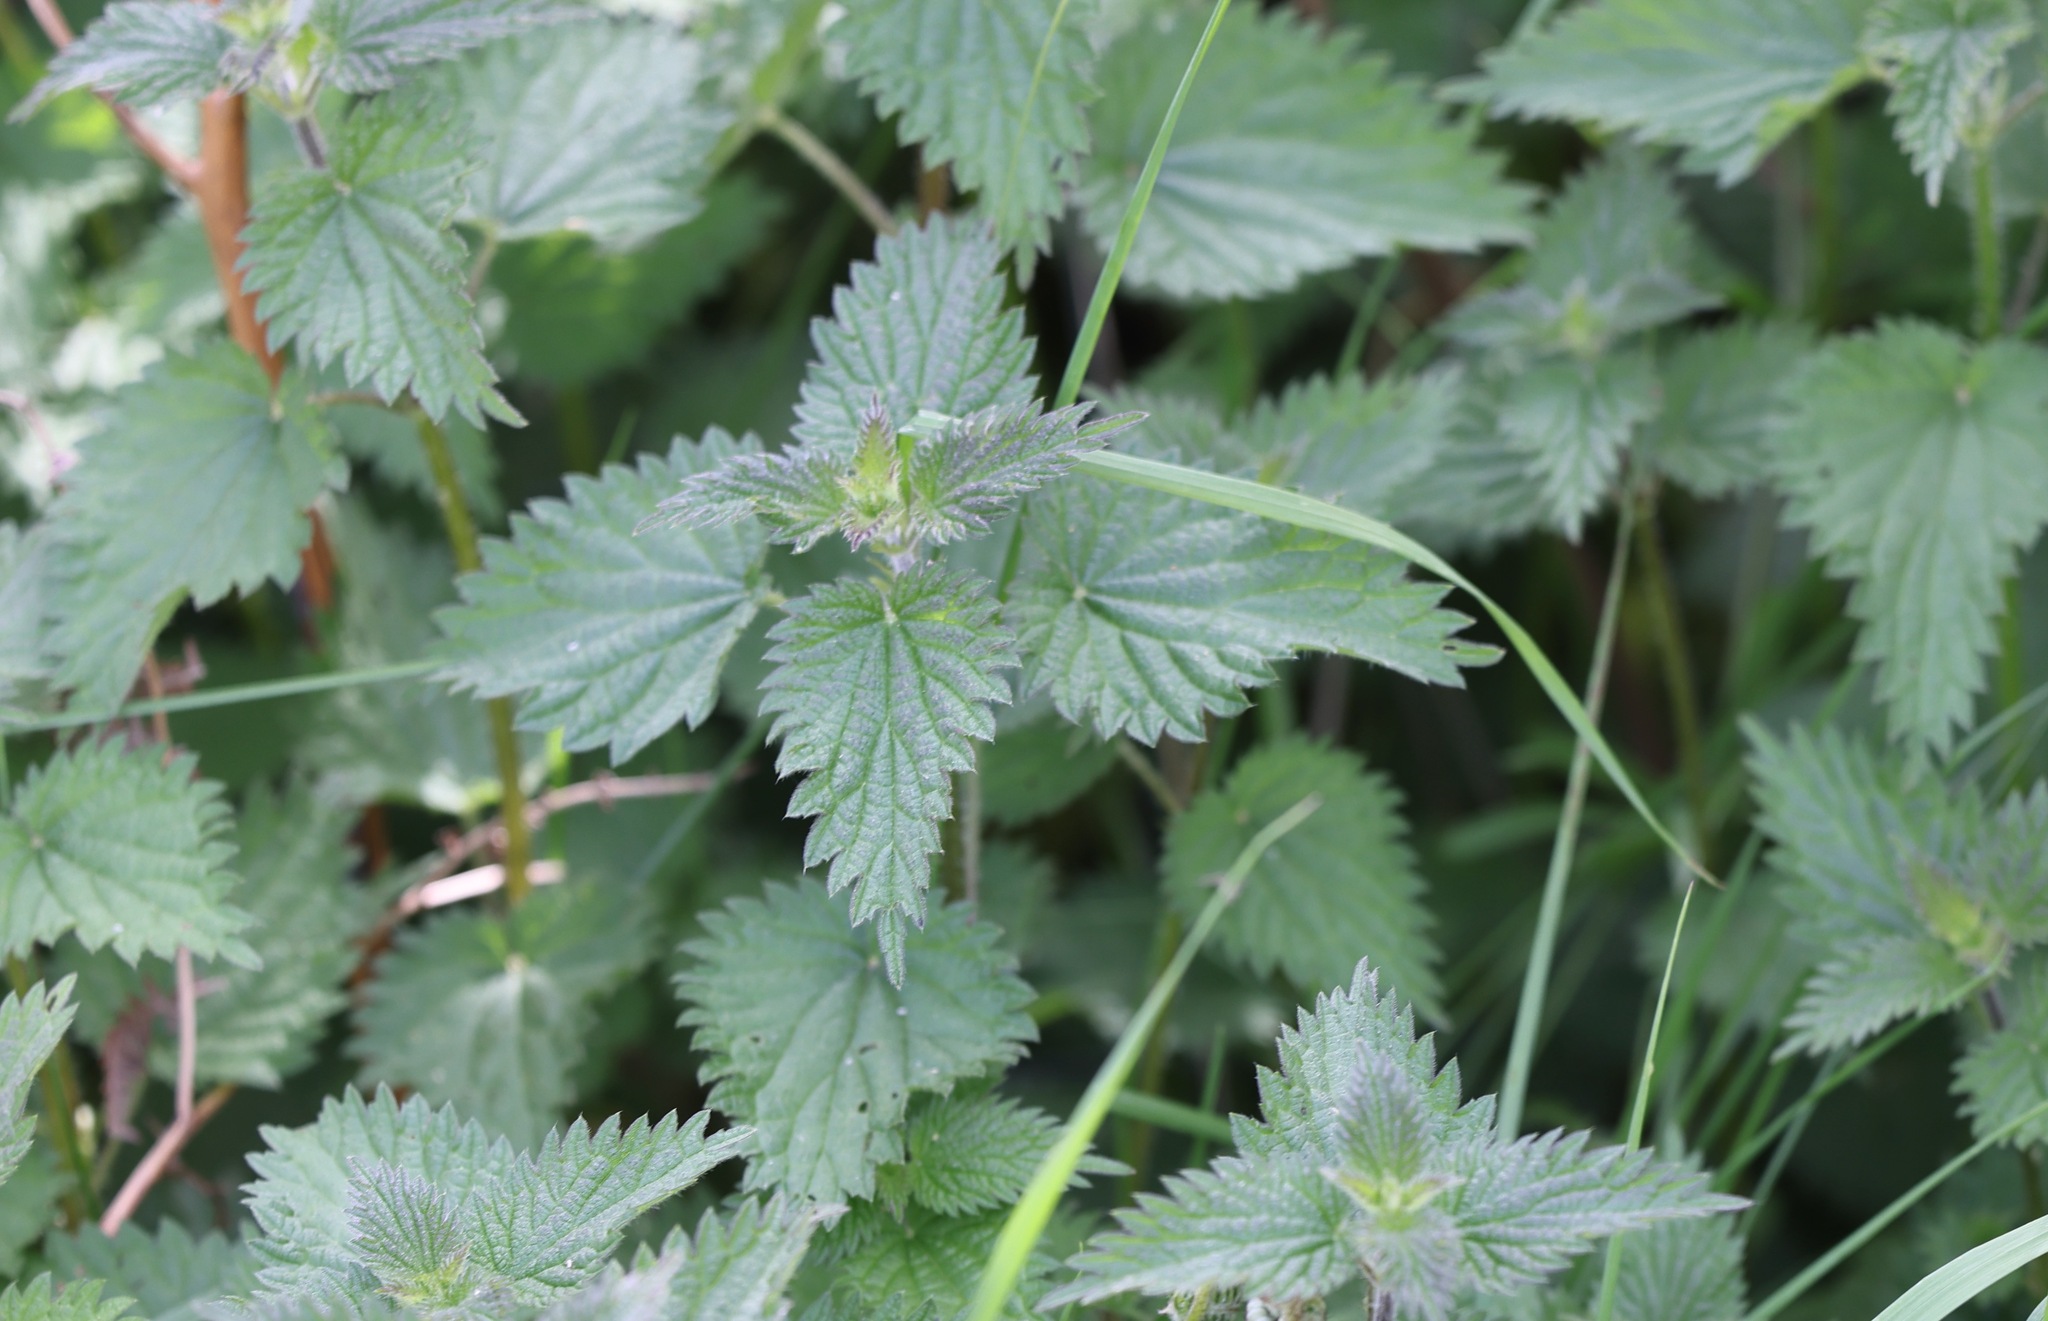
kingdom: Plantae
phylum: Tracheophyta
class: Magnoliopsida
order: Rosales
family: Urticaceae
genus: Urtica
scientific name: Urtica dioica
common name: Common nettle
